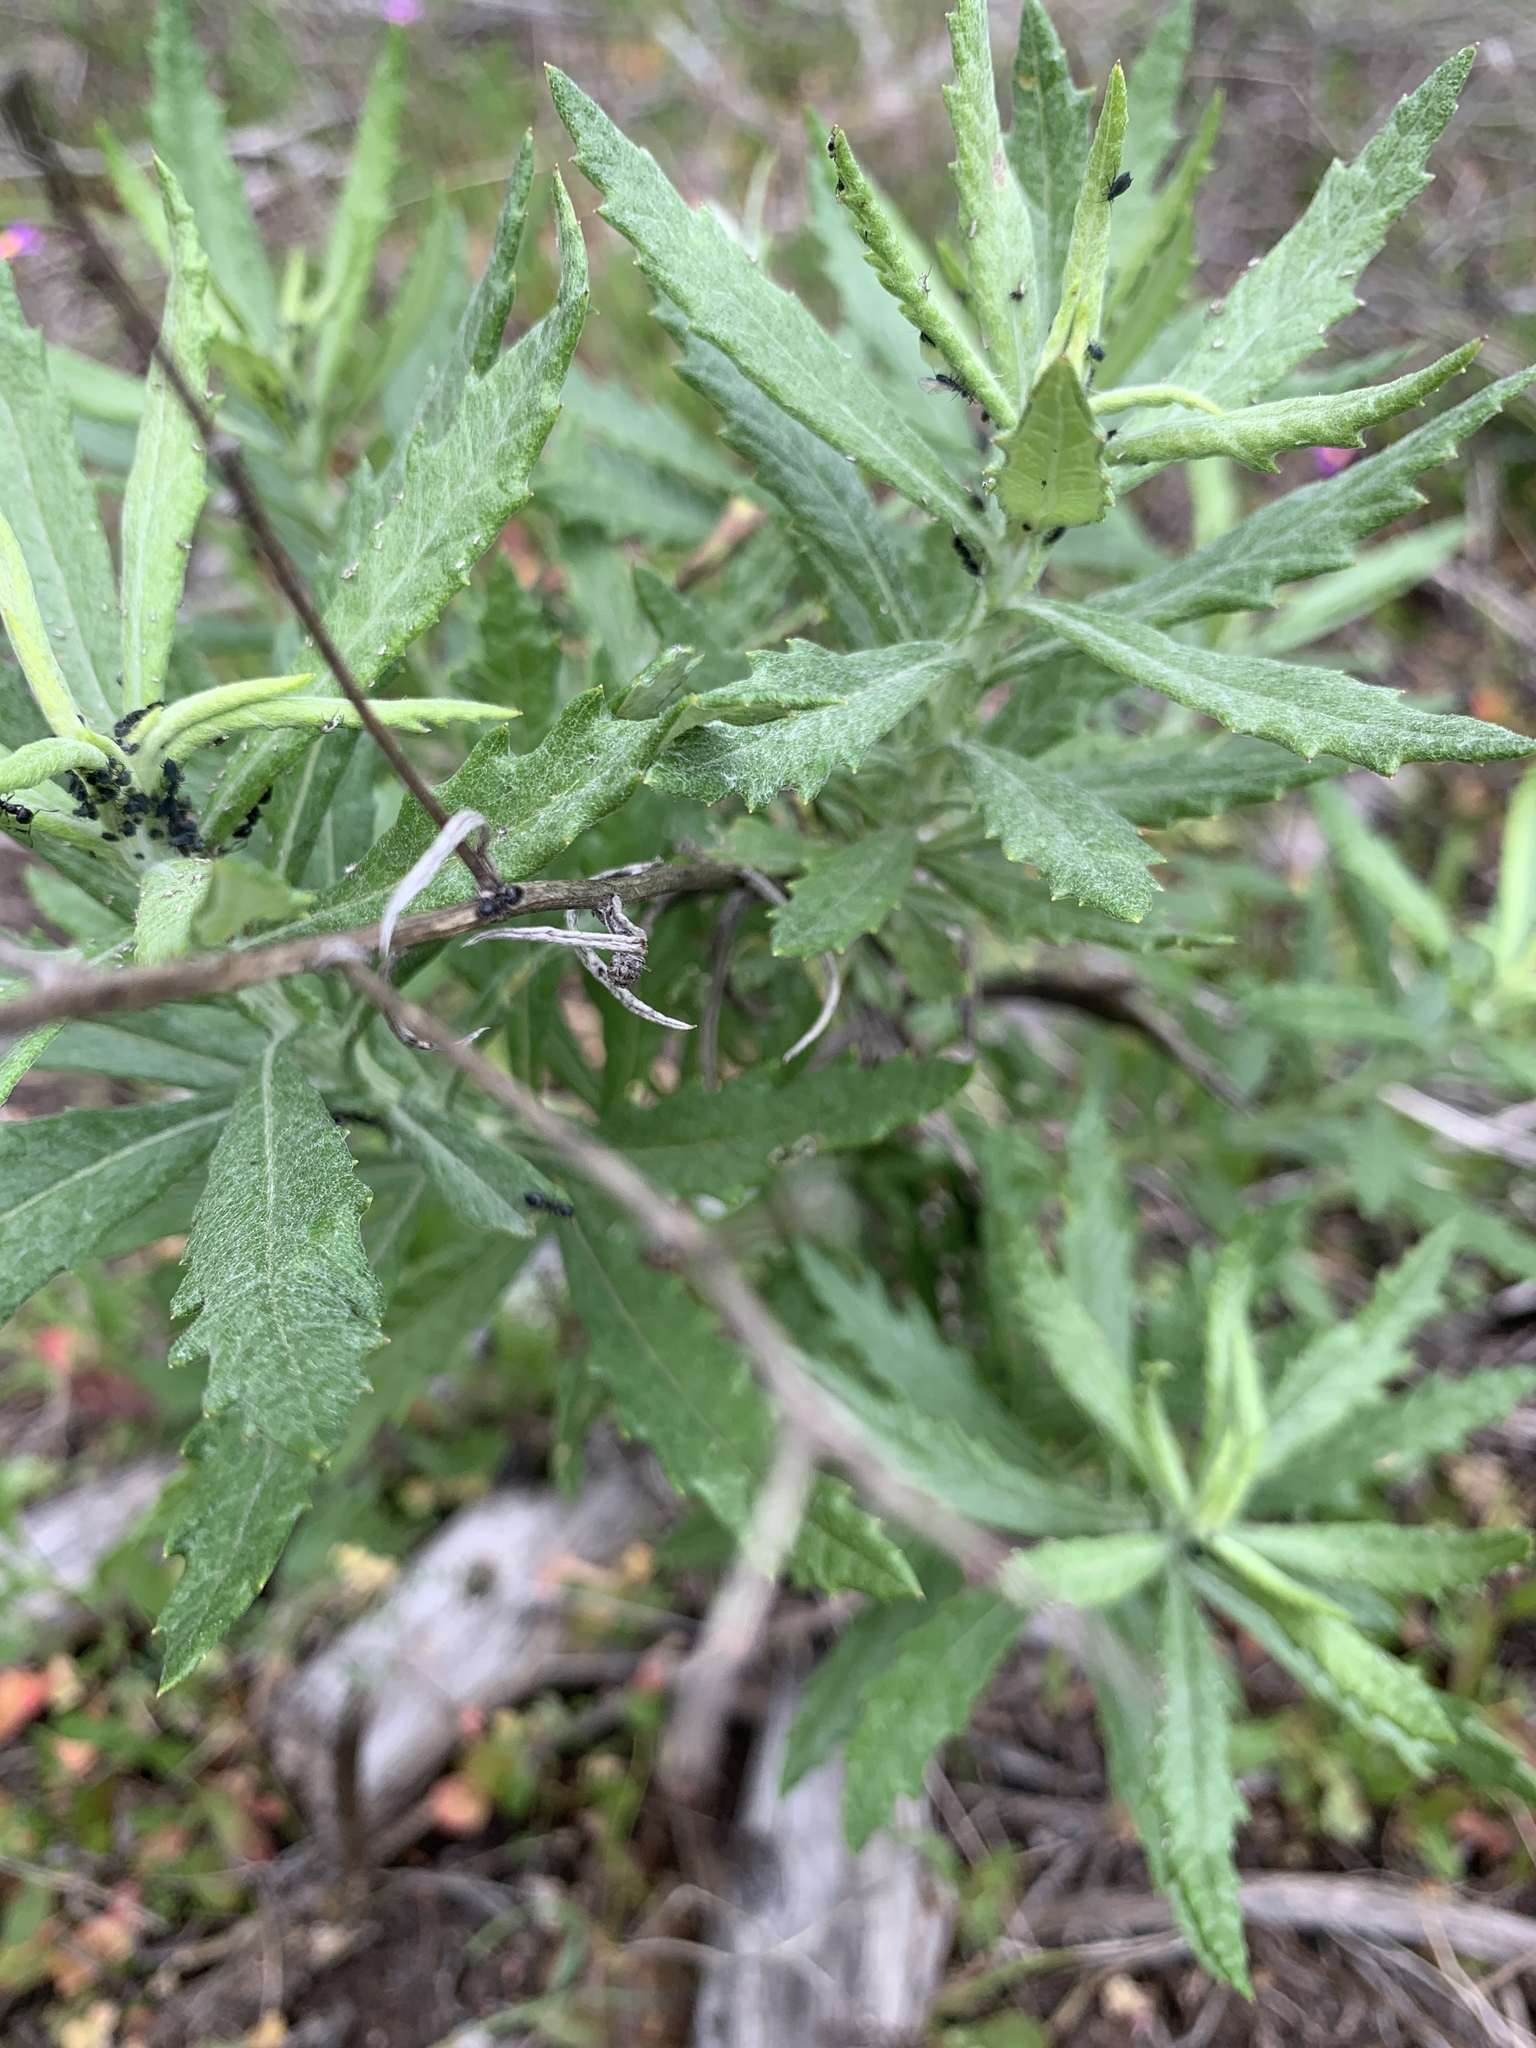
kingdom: Plantae
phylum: Tracheophyta
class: Magnoliopsida
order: Asterales
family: Asteraceae
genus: Senecio
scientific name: Senecio pterophorus
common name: Shoddy ragwort
